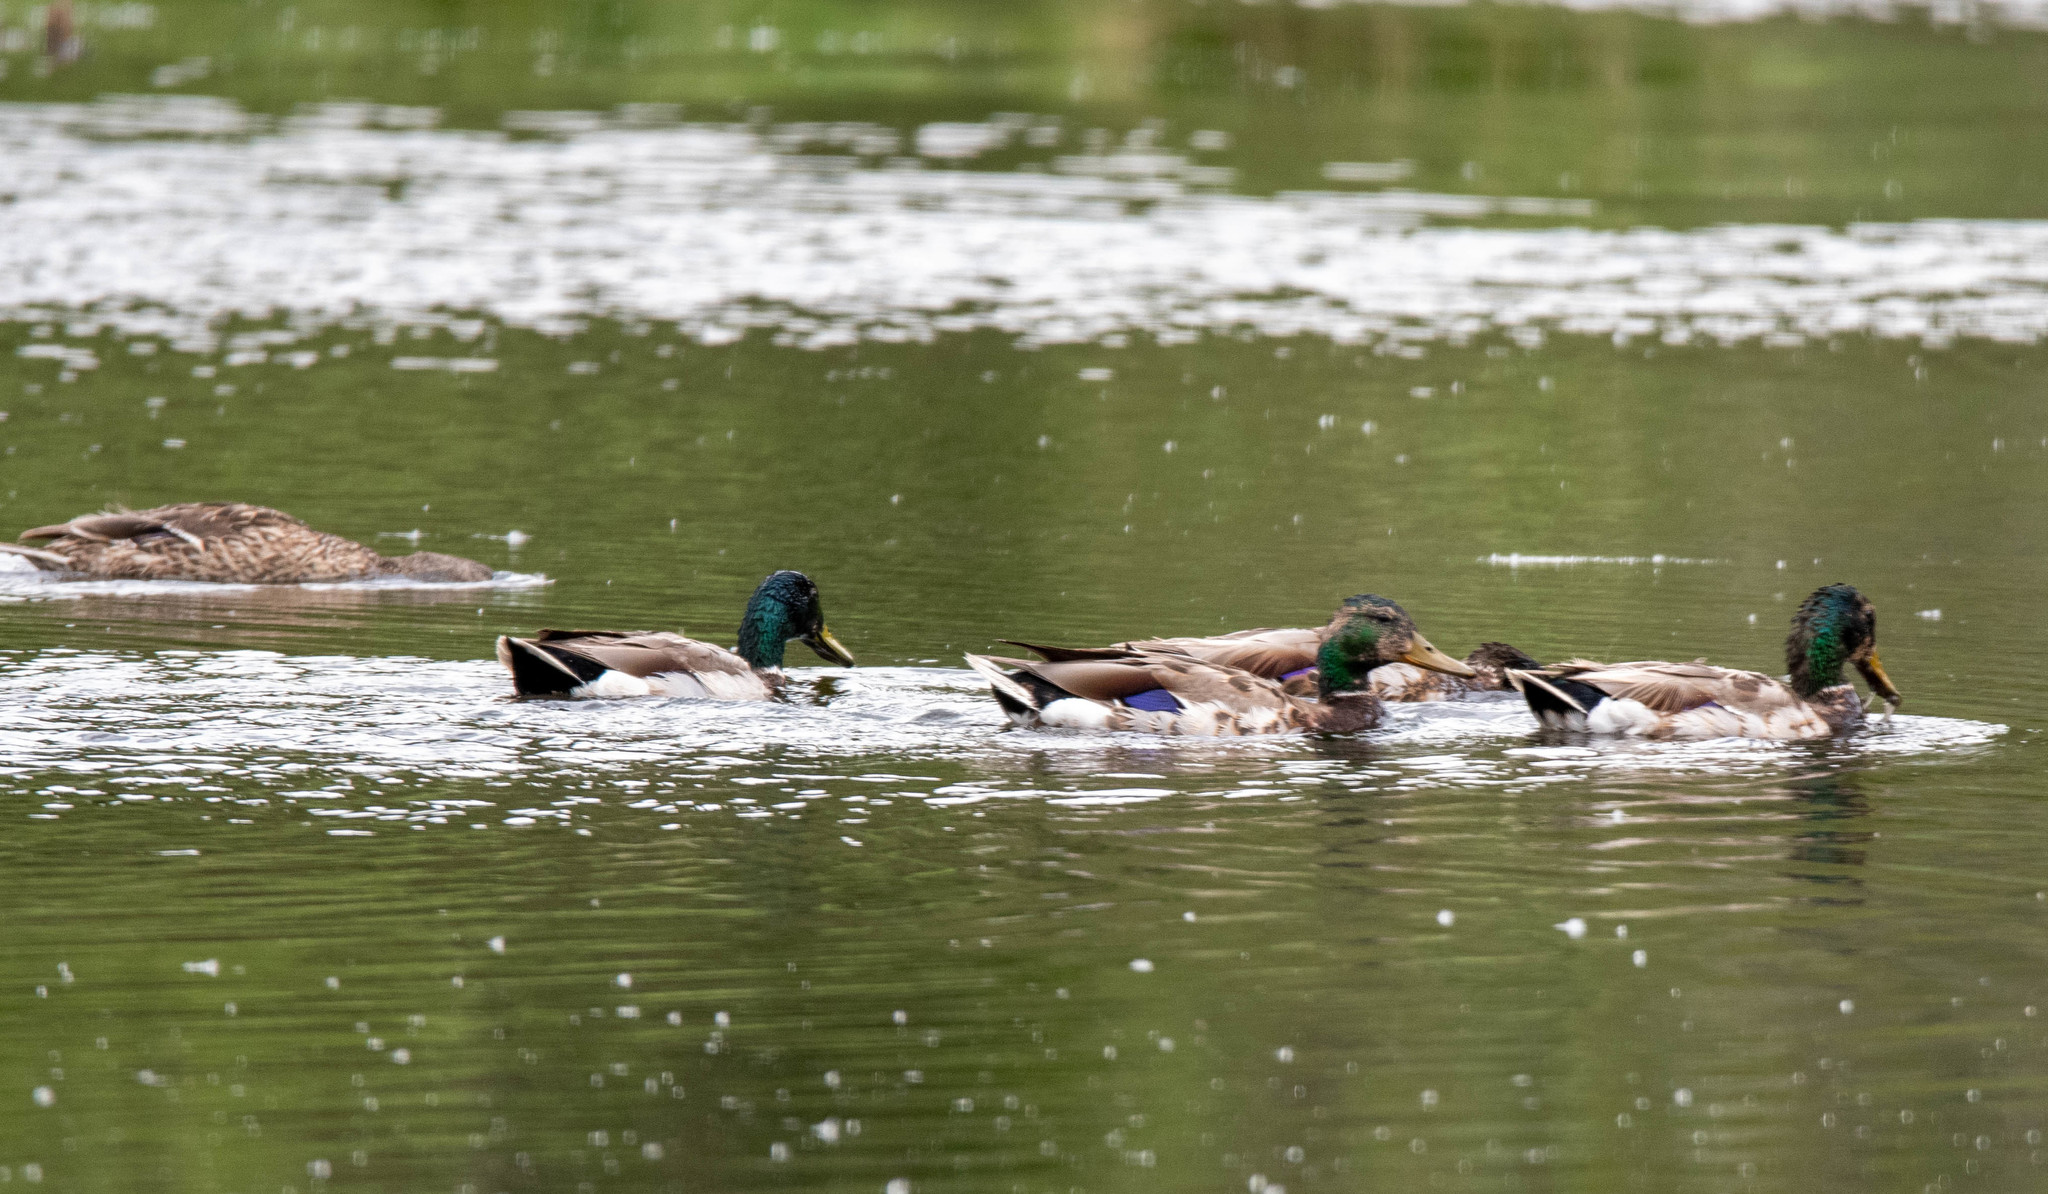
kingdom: Animalia
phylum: Chordata
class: Aves
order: Anseriformes
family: Anatidae
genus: Anas
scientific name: Anas platyrhynchos
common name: Mallard
